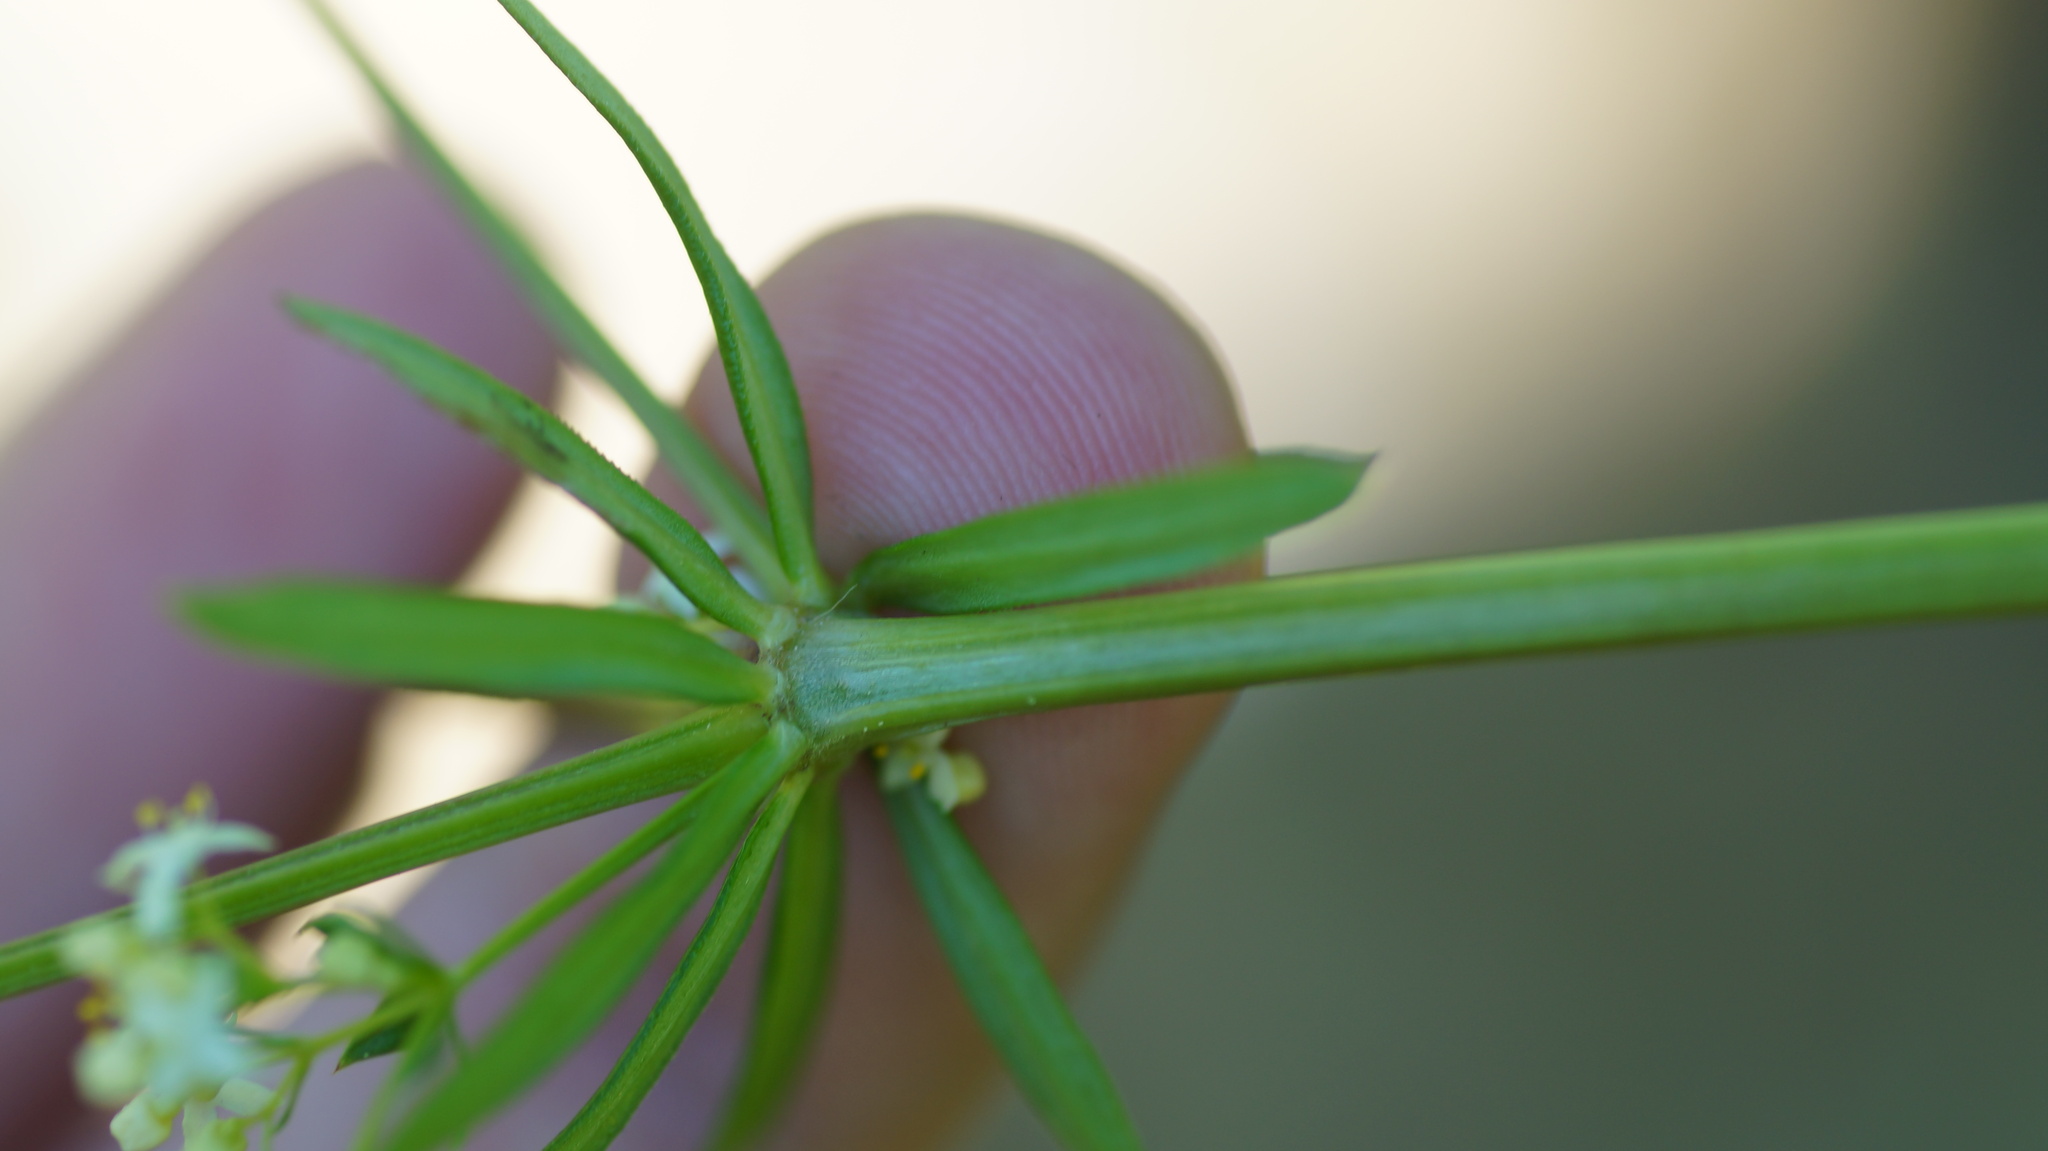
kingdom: Plantae
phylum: Tracheophyta
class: Magnoliopsida
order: Gentianales
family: Rubiaceae
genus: Galium
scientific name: Galium mollugo
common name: Hedge bedstraw
